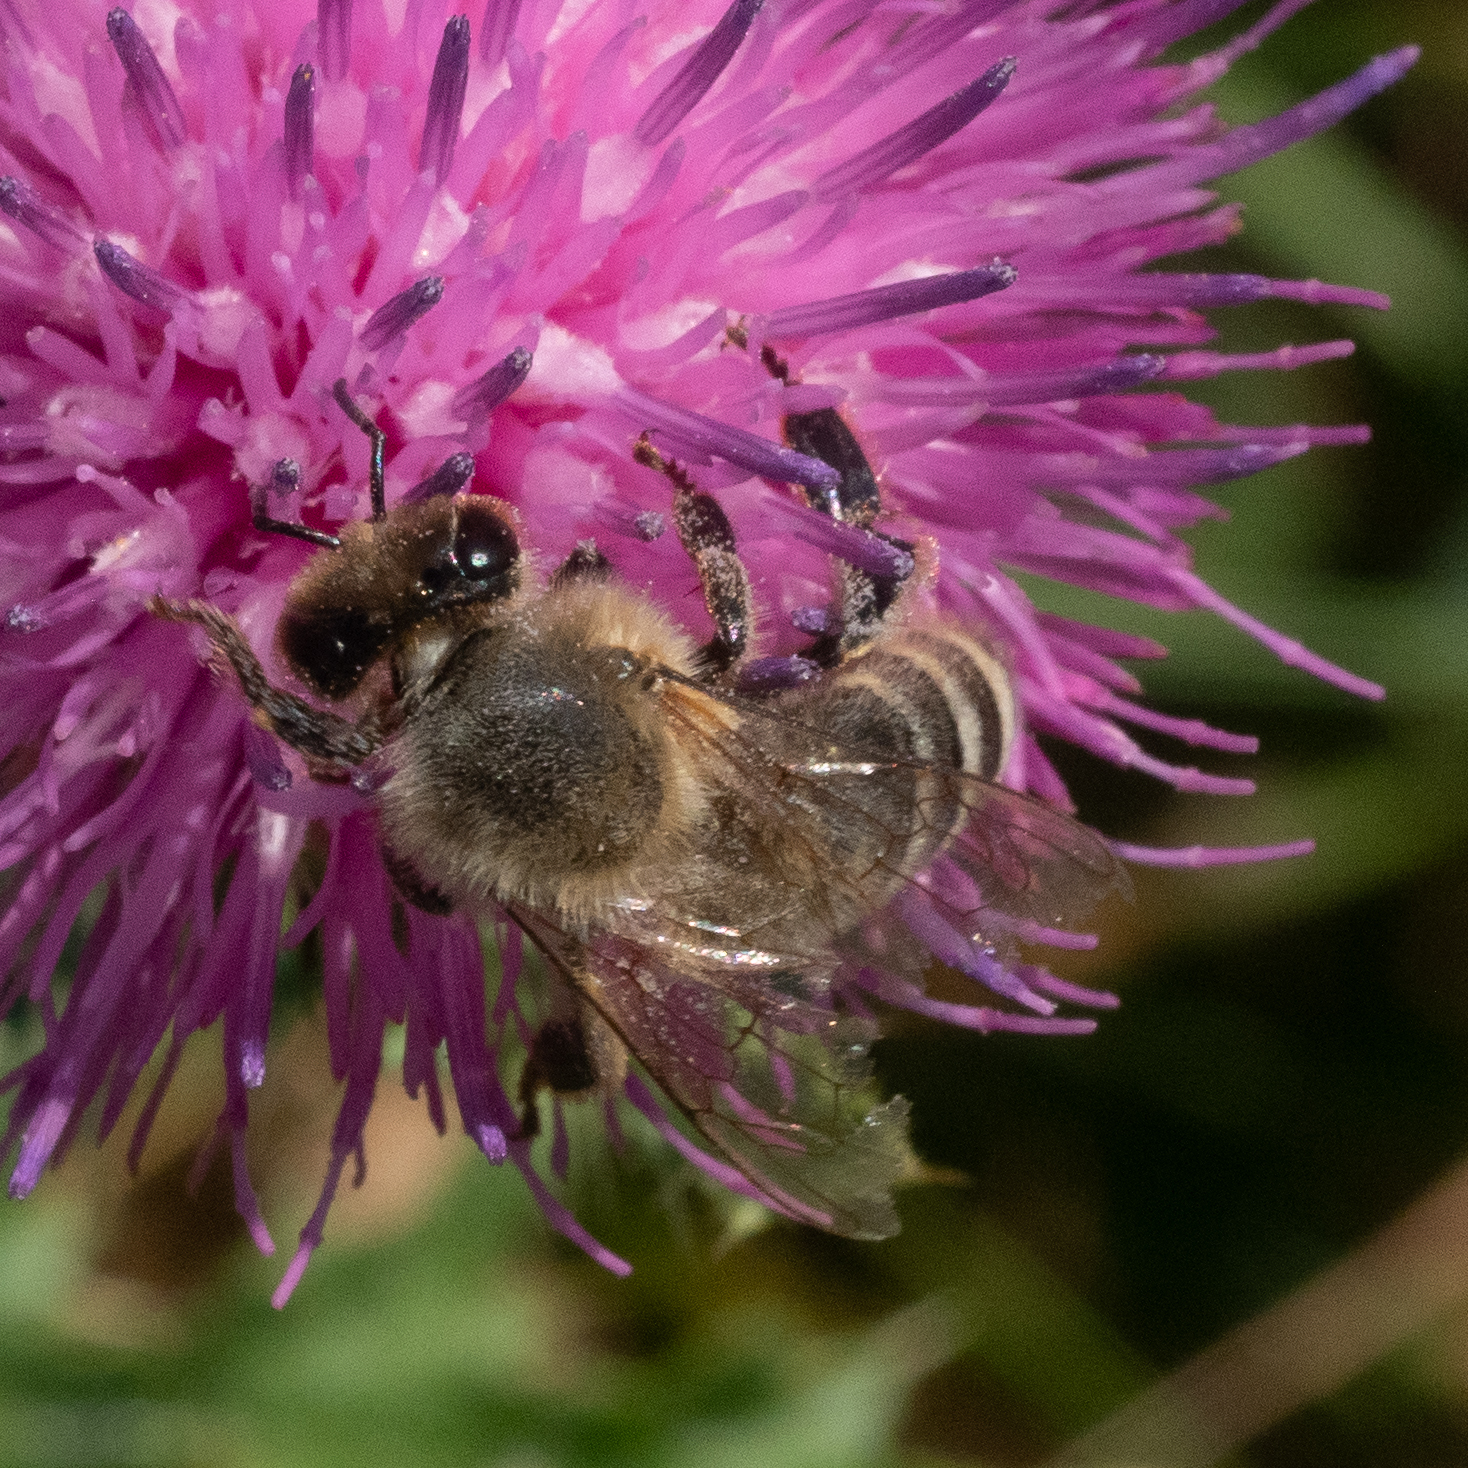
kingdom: Animalia
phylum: Arthropoda
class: Insecta
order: Hymenoptera
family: Apidae
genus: Apis
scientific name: Apis mellifera
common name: Honey bee
